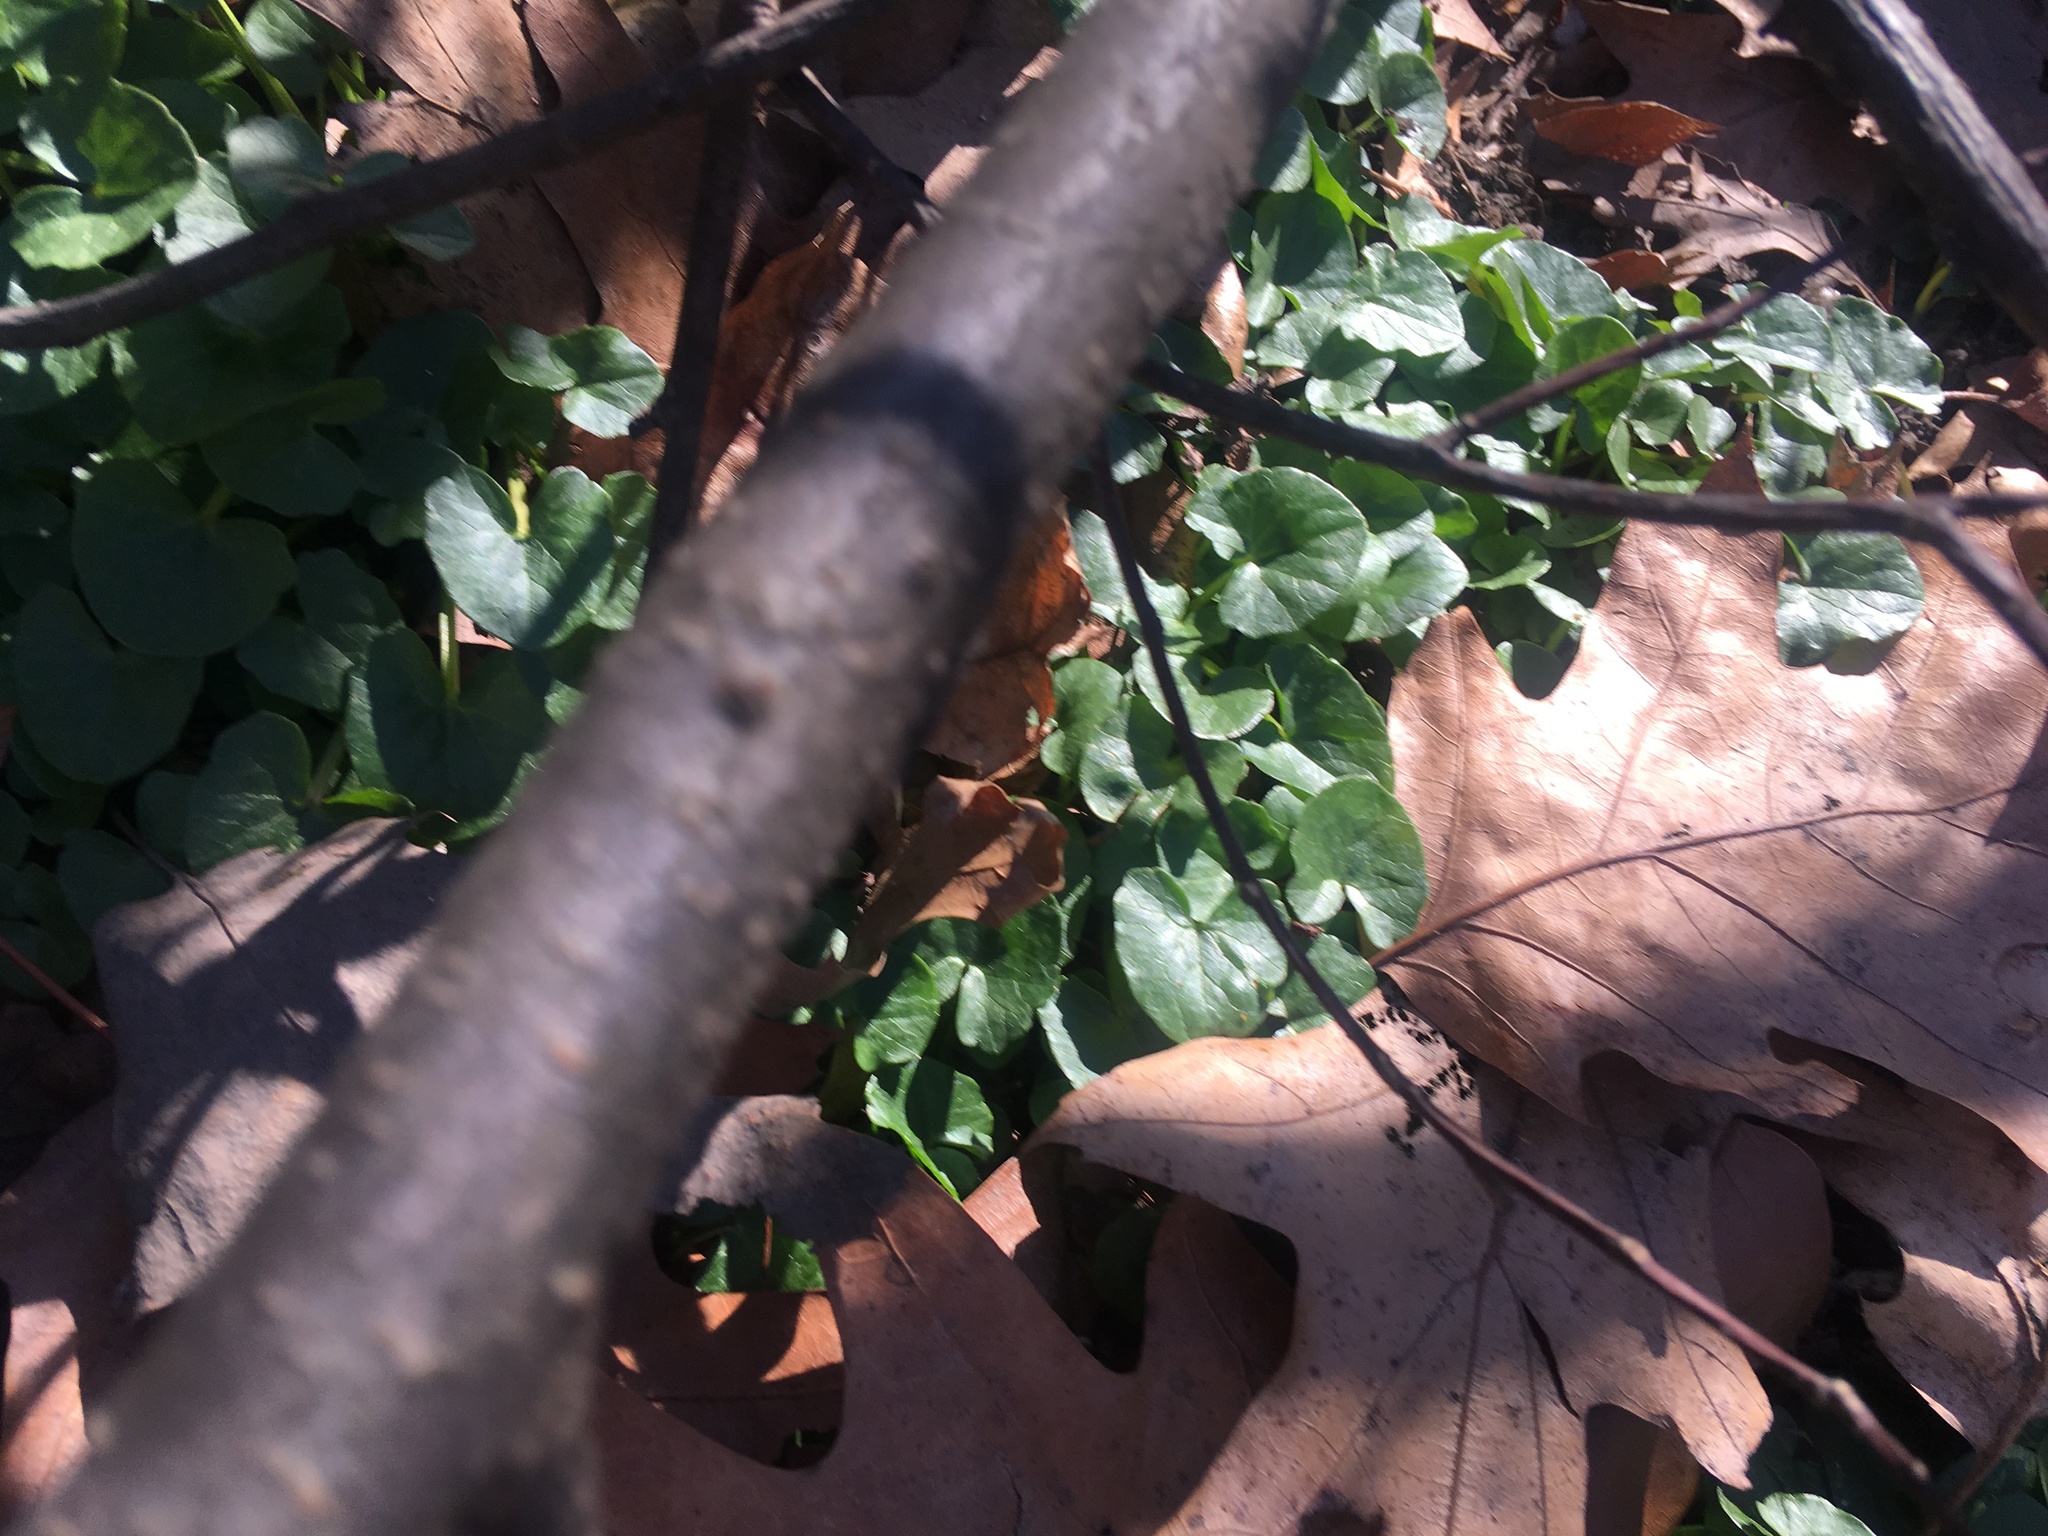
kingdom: Plantae
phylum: Tracheophyta
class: Magnoliopsida
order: Ranunculales
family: Ranunculaceae
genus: Ficaria
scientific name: Ficaria verna
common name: Lesser celandine
